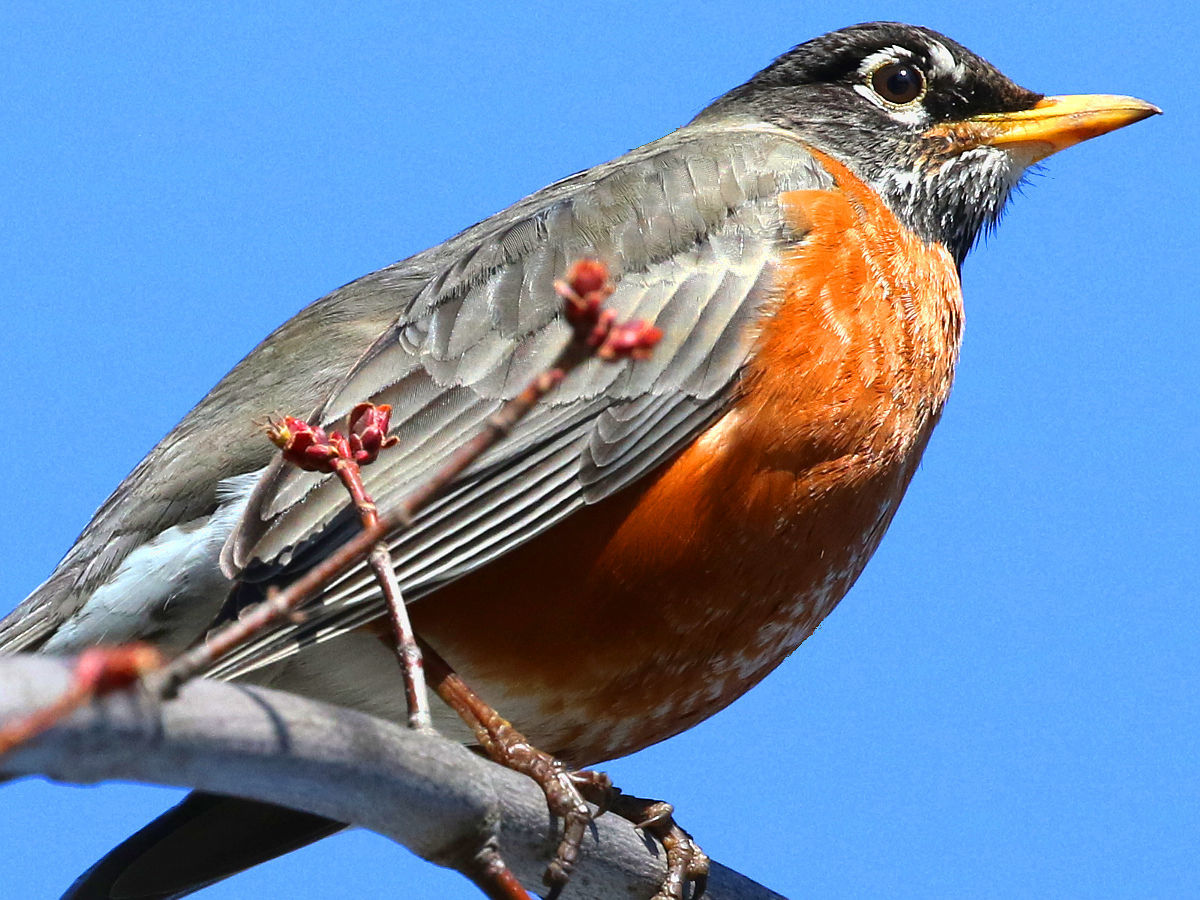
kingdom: Animalia
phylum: Chordata
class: Aves
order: Passeriformes
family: Turdidae
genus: Turdus
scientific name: Turdus migratorius
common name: American robin
